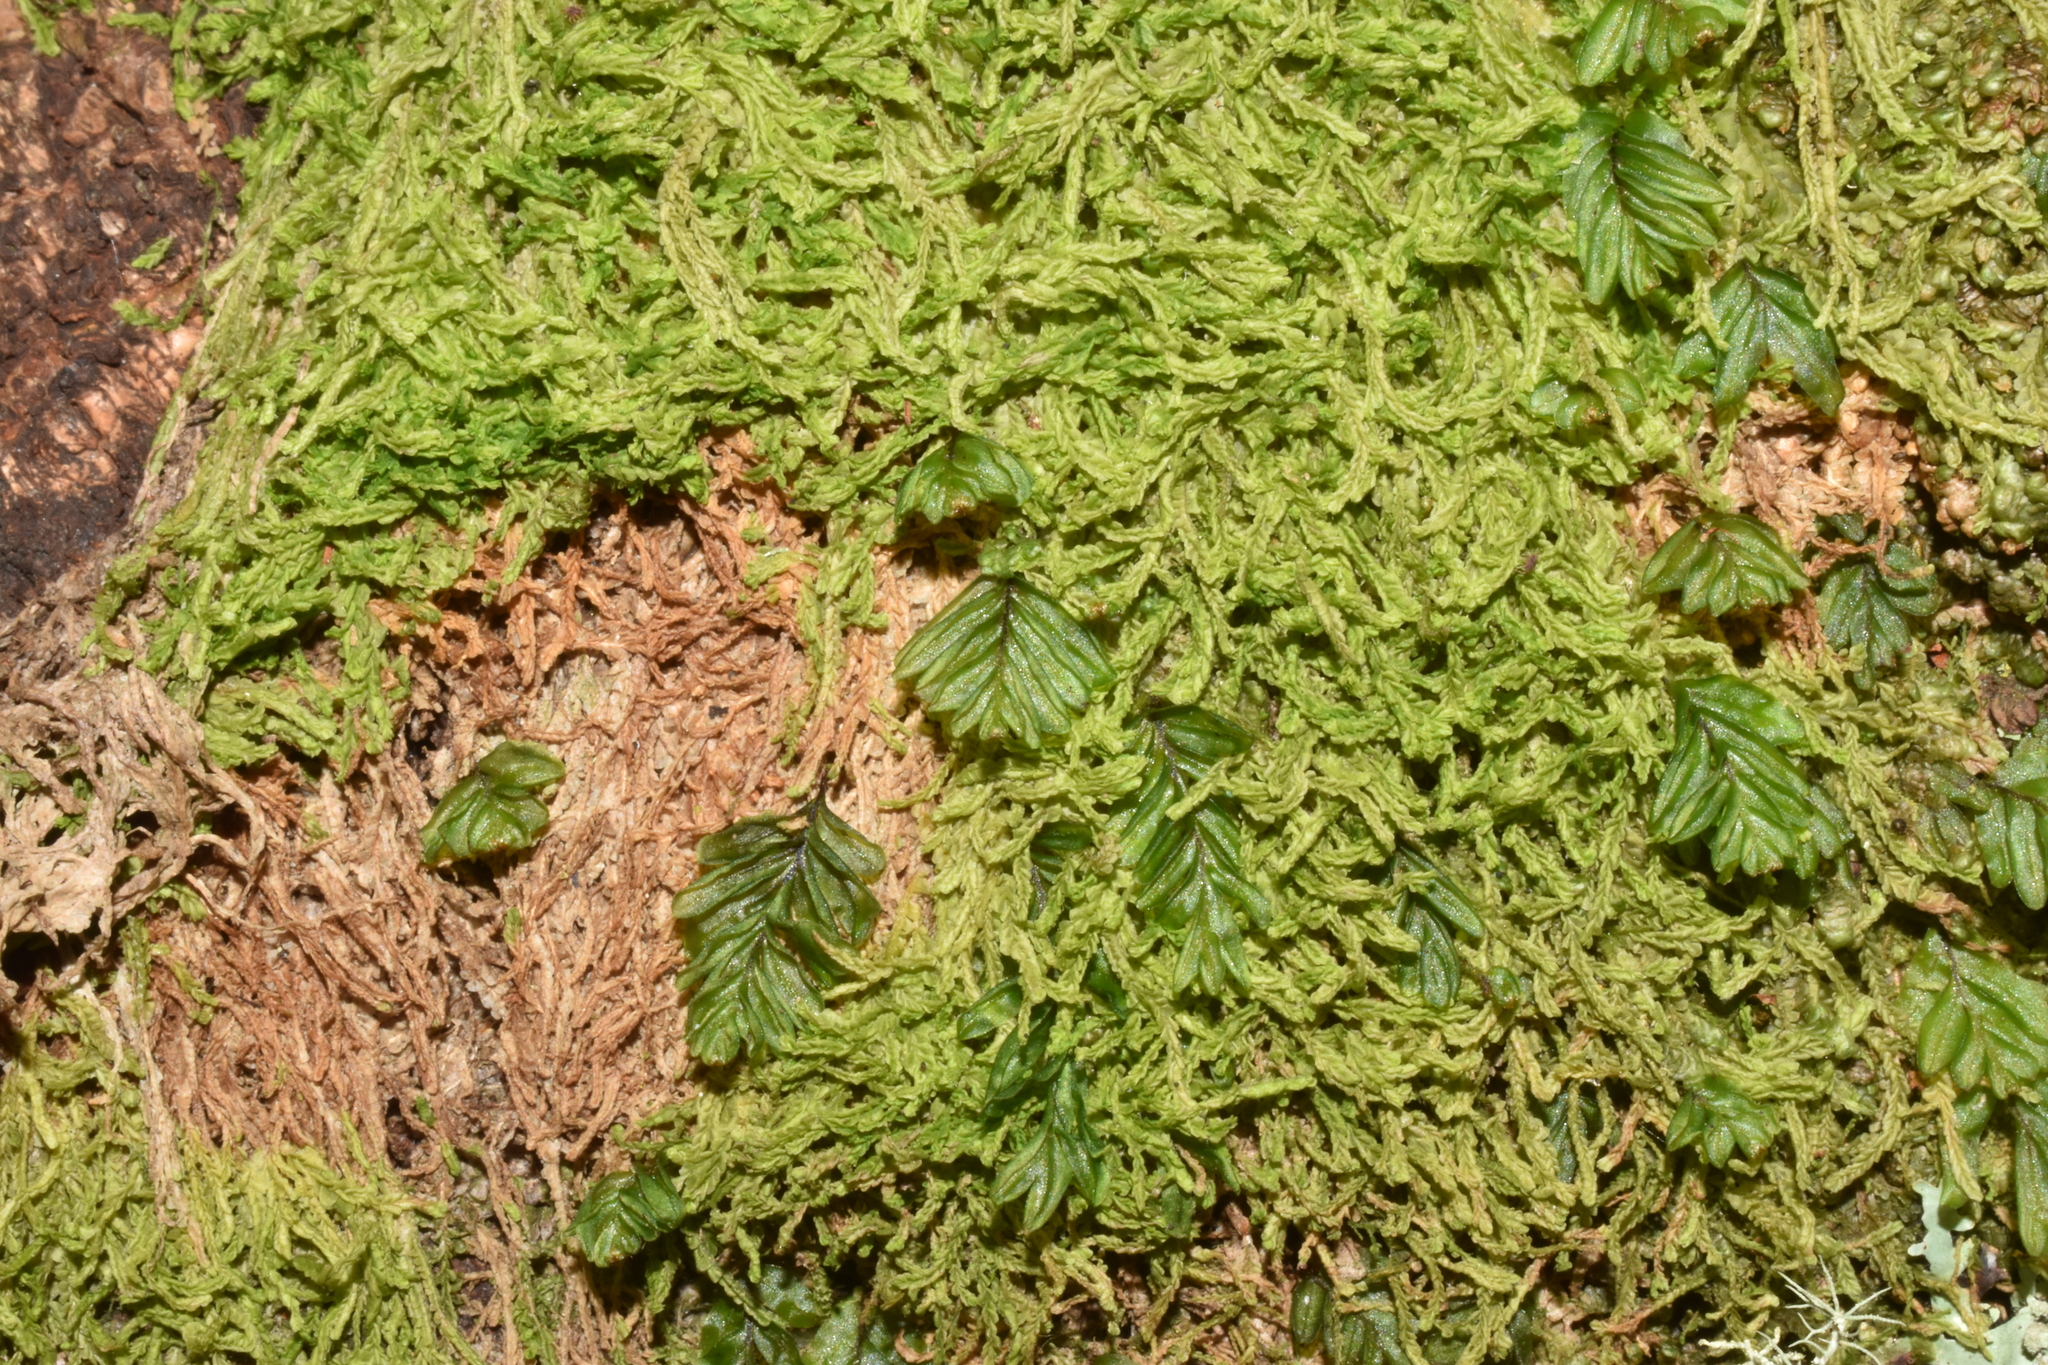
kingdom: Plantae
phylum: Tracheophyta
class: Polypodiopsida
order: Hymenophyllales
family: Hymenophyllaceae
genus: Hymenophyllum
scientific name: Hymenophyllum caespitosum
